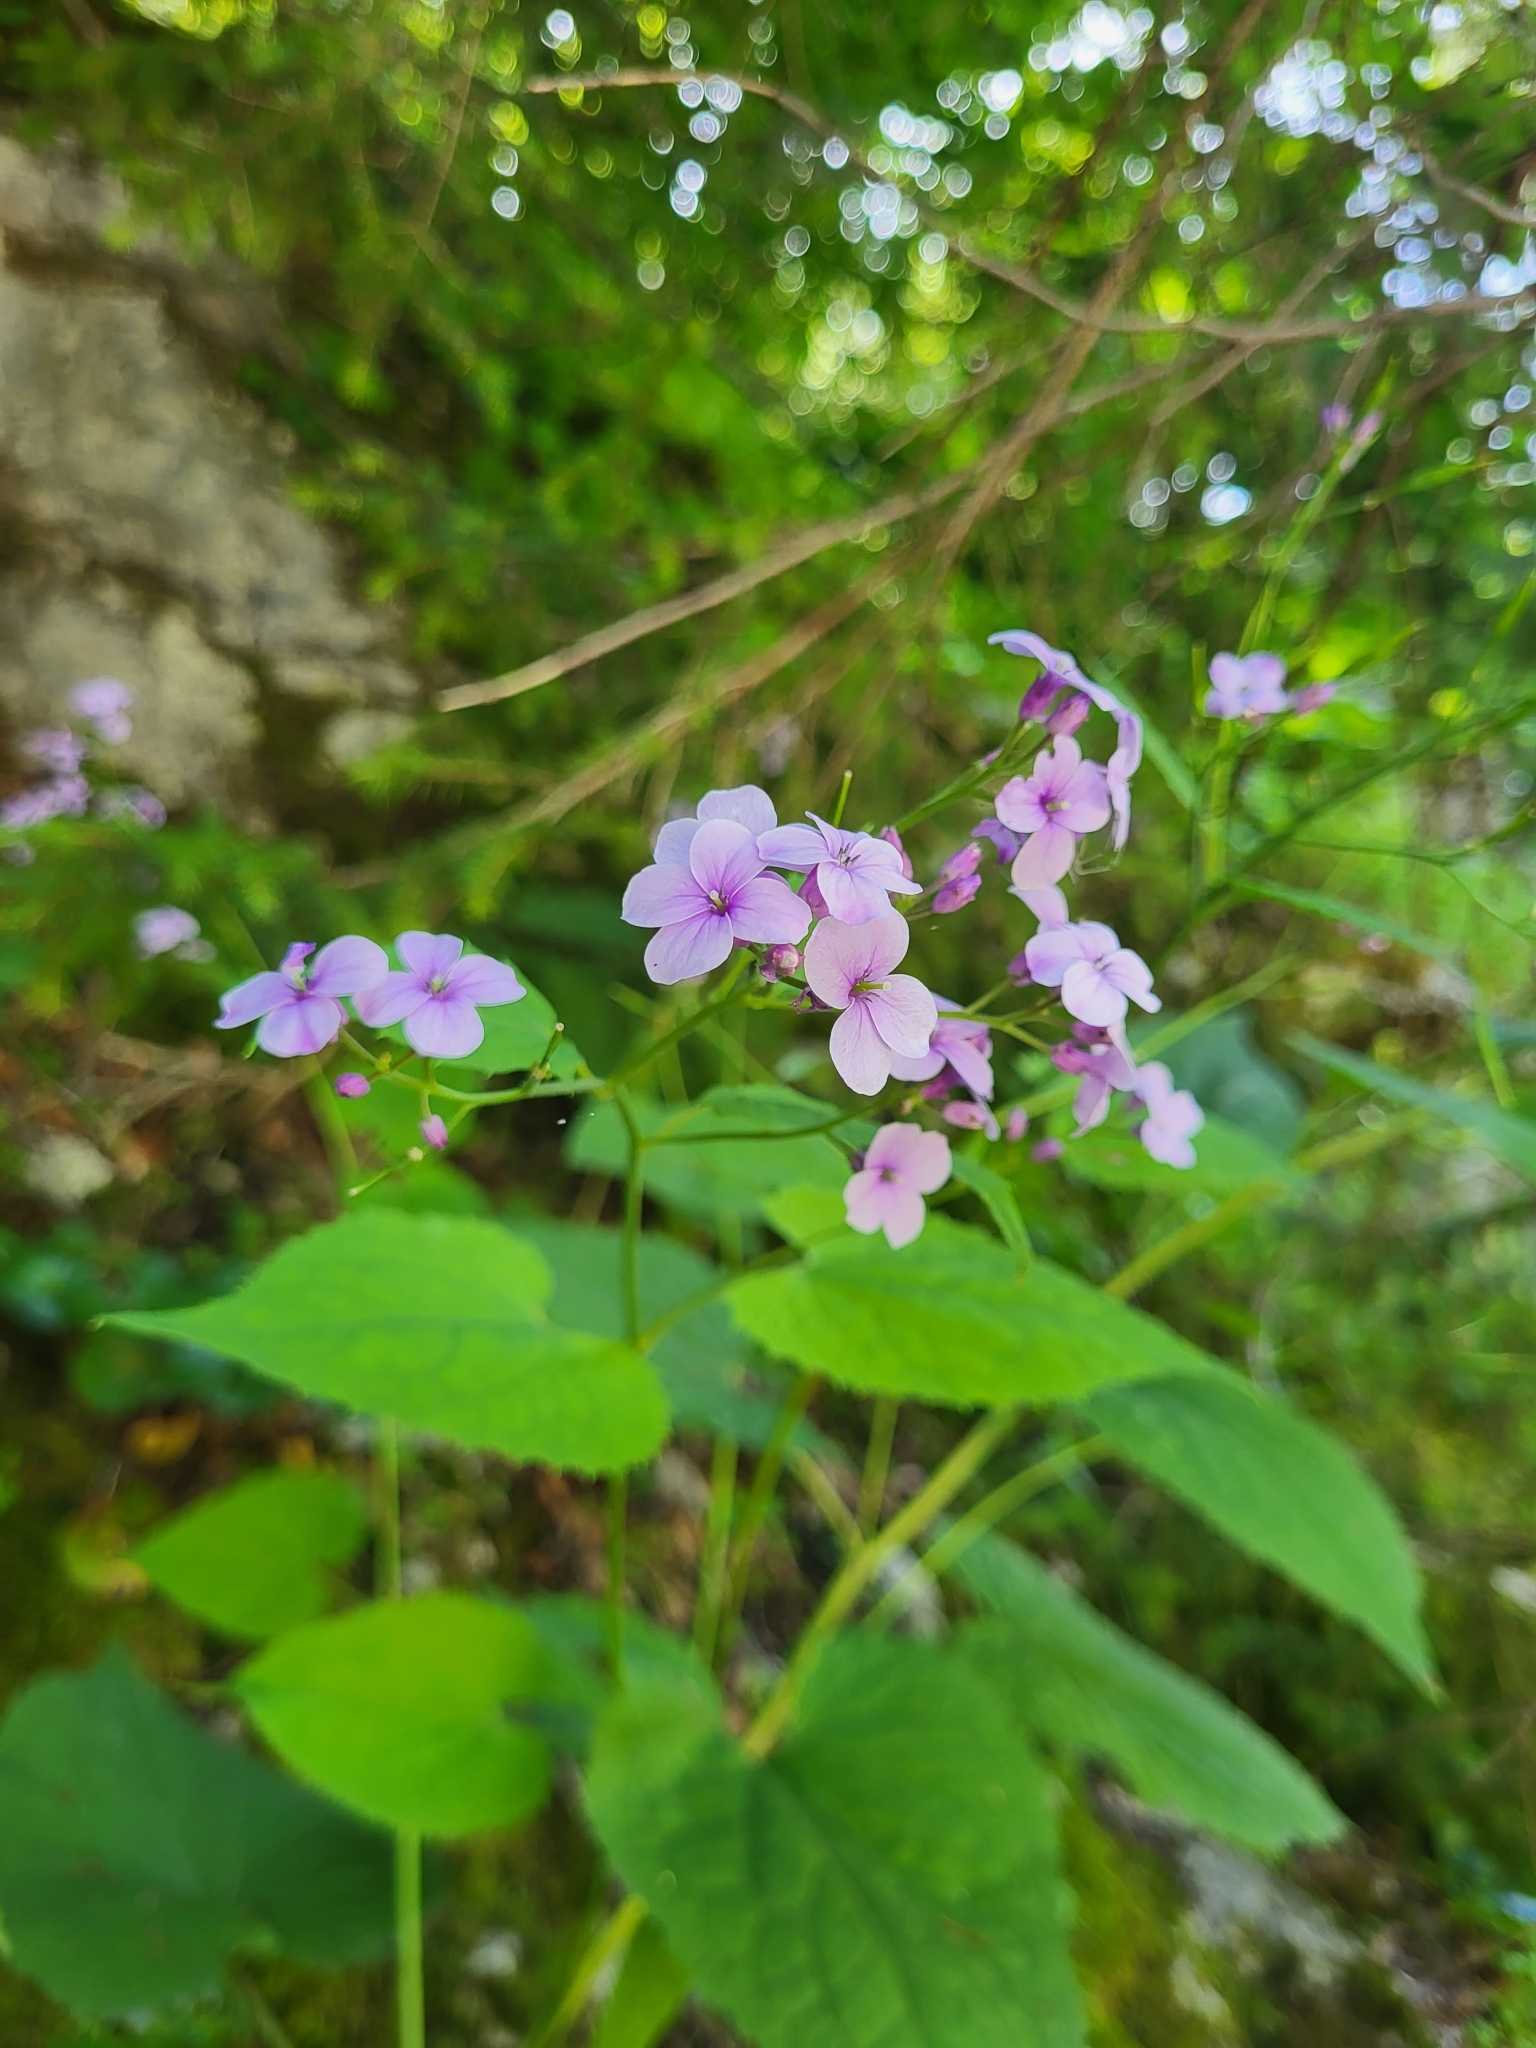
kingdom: Plantae
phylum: Tracheophyta
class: Magnoliopsida
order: Brassicales
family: Brassicaceae
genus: Lunaria
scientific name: Lunaria rediviva
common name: Perennial honesty
